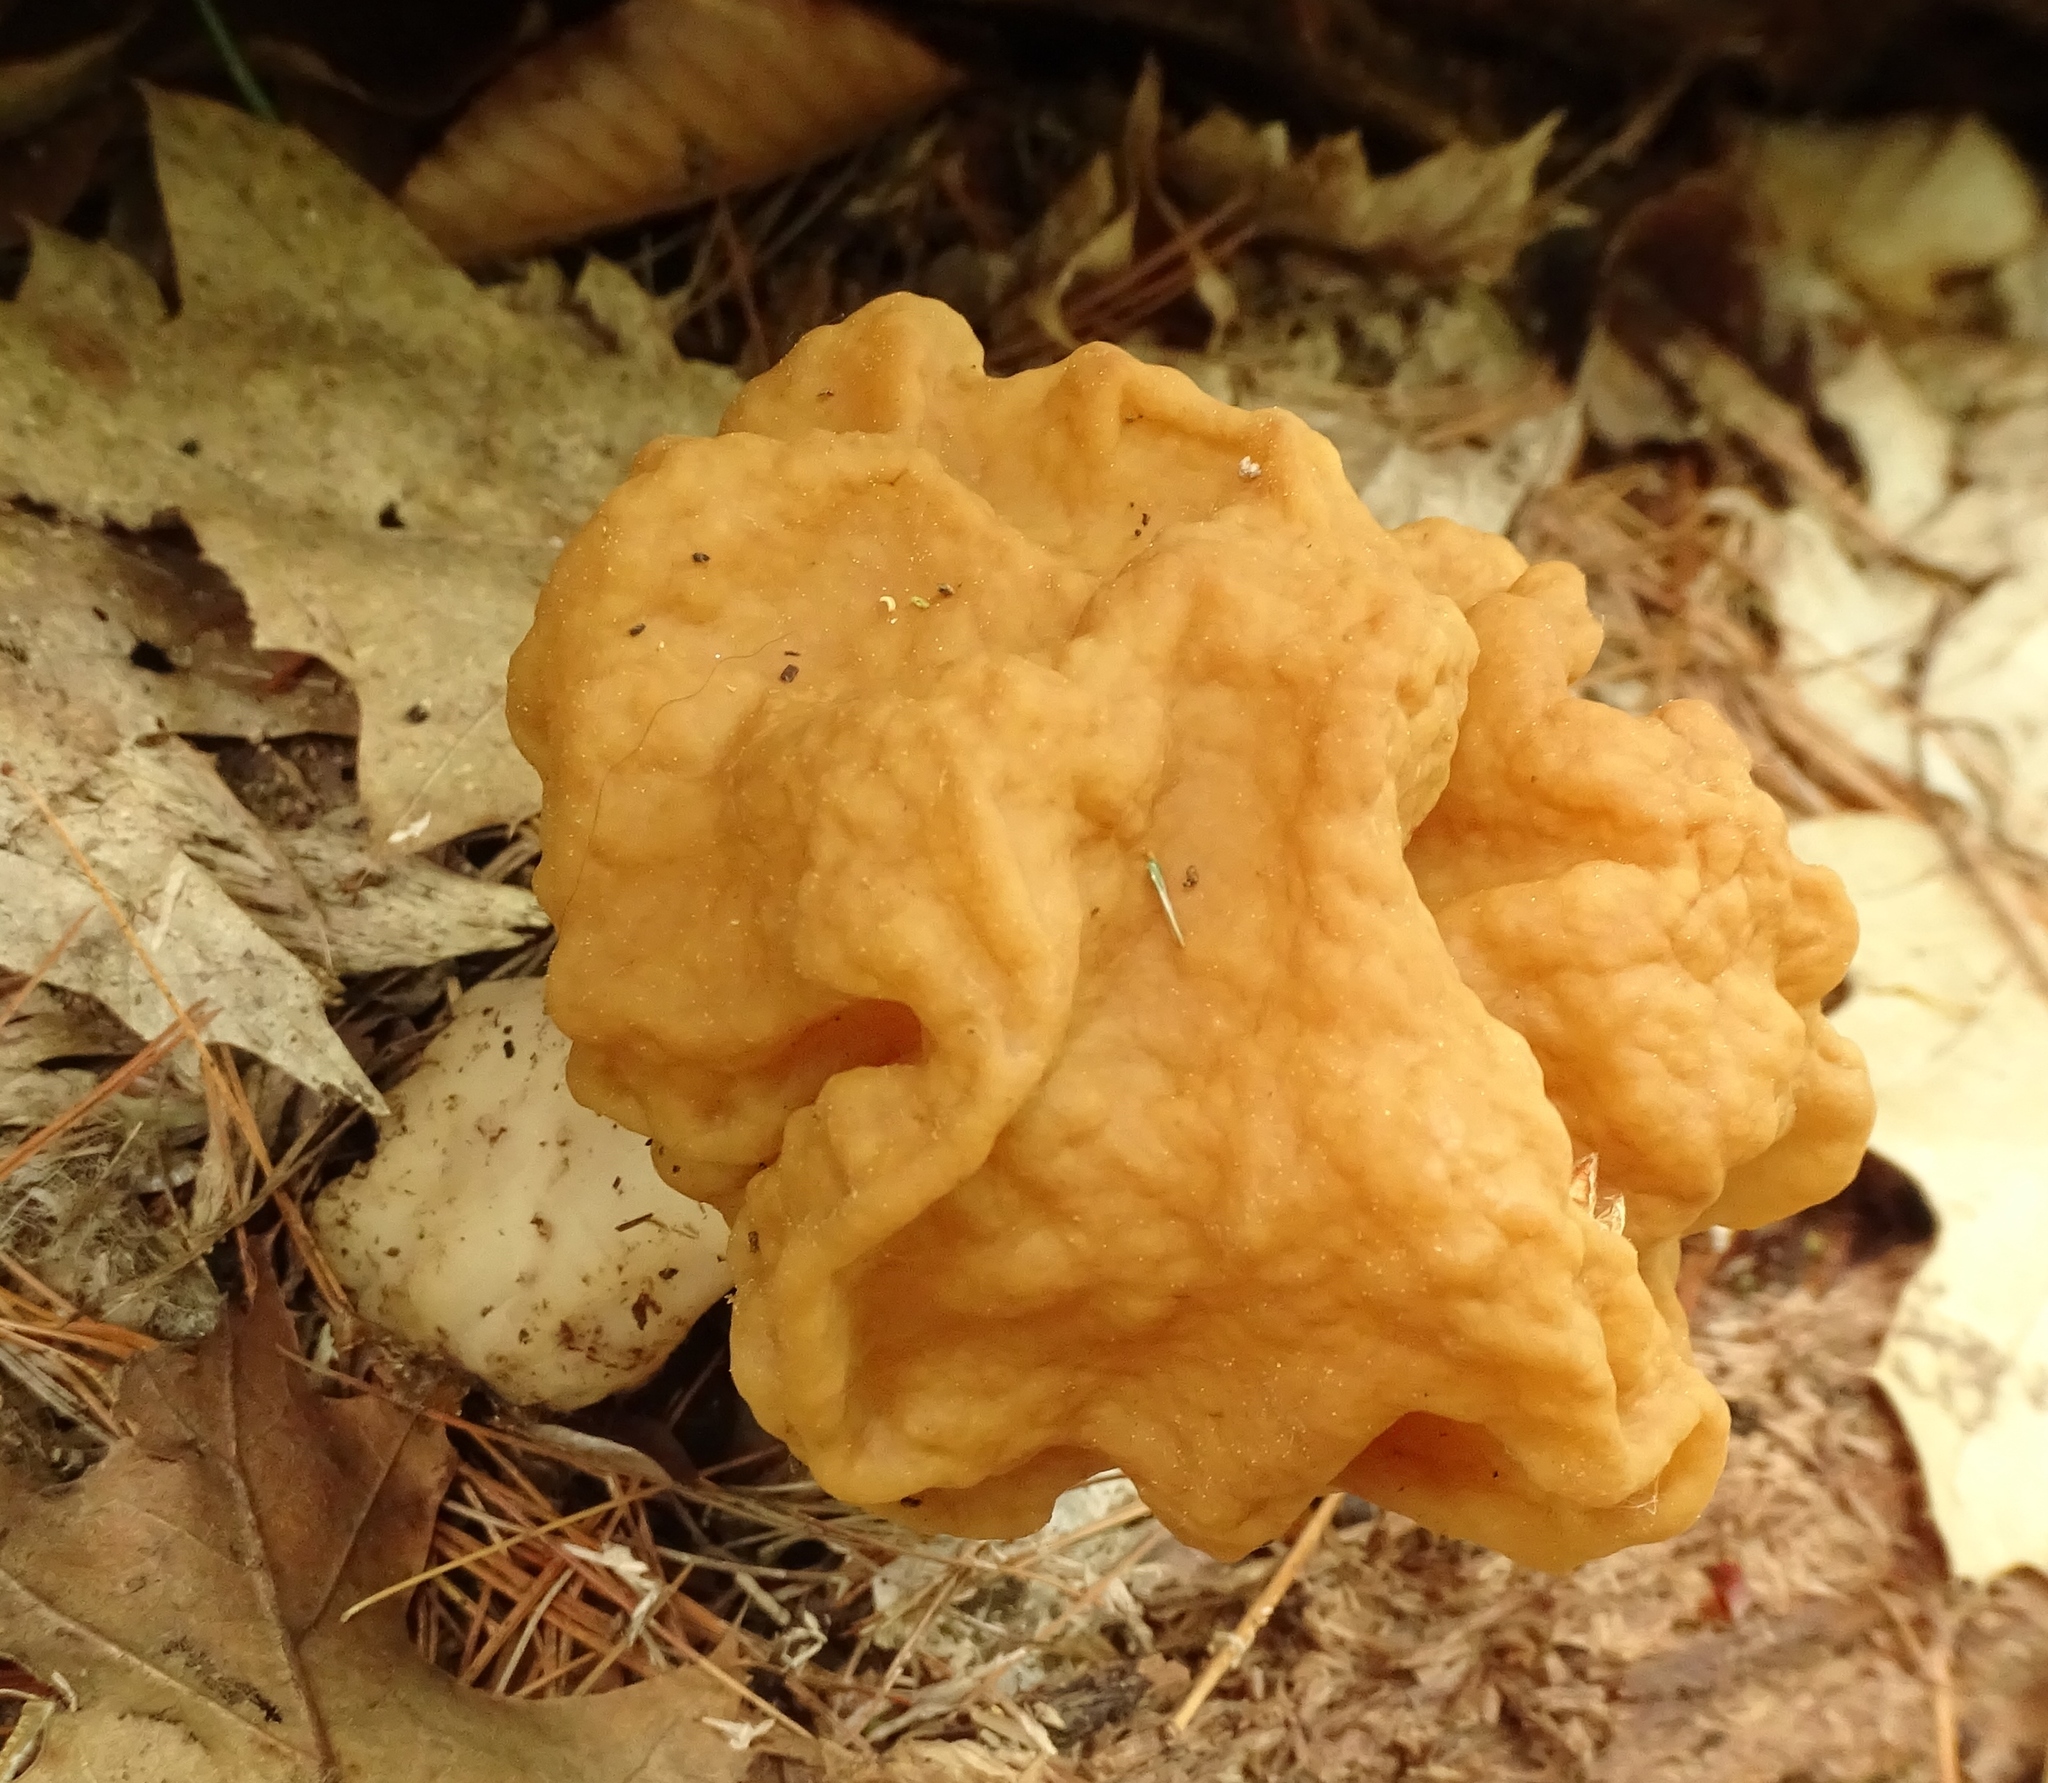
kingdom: Fungi
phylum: Ascomycota
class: Pezizomycetes
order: Pezizales
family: Discinaceae
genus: Gyromitra
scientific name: Gyromitra korfii
